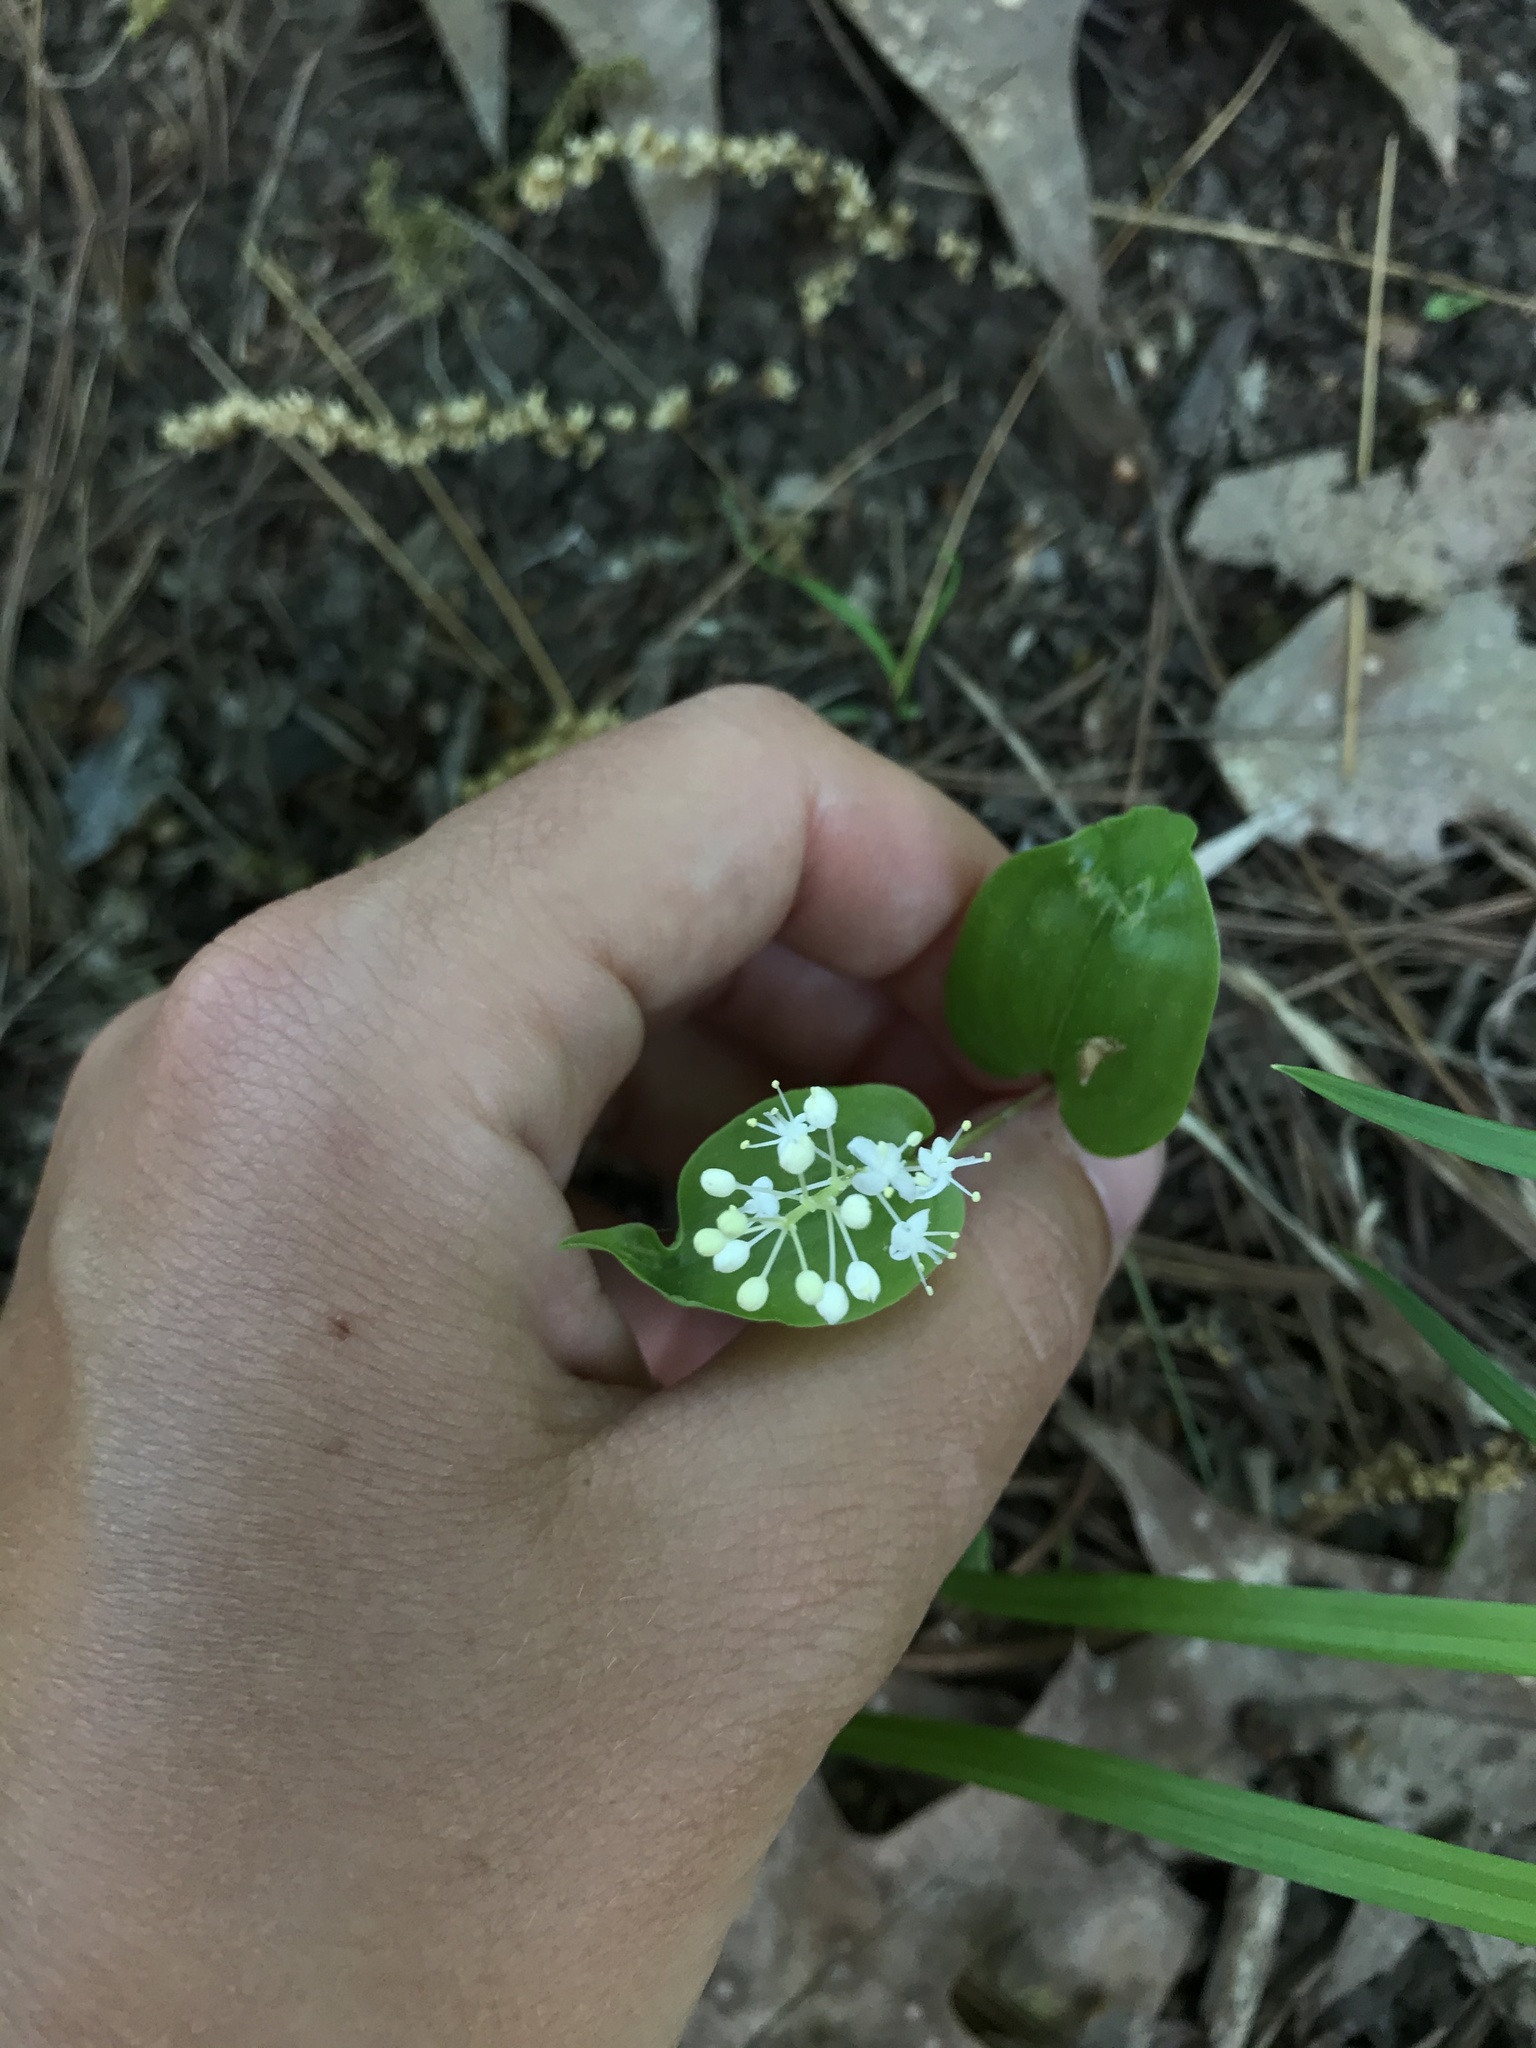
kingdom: Plantae
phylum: Tracheophyta
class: Liliopsida
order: Asparagales
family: Asparagaceae
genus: Maianthemum
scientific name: Maianthemum canadense
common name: False lily-of-the-valley
